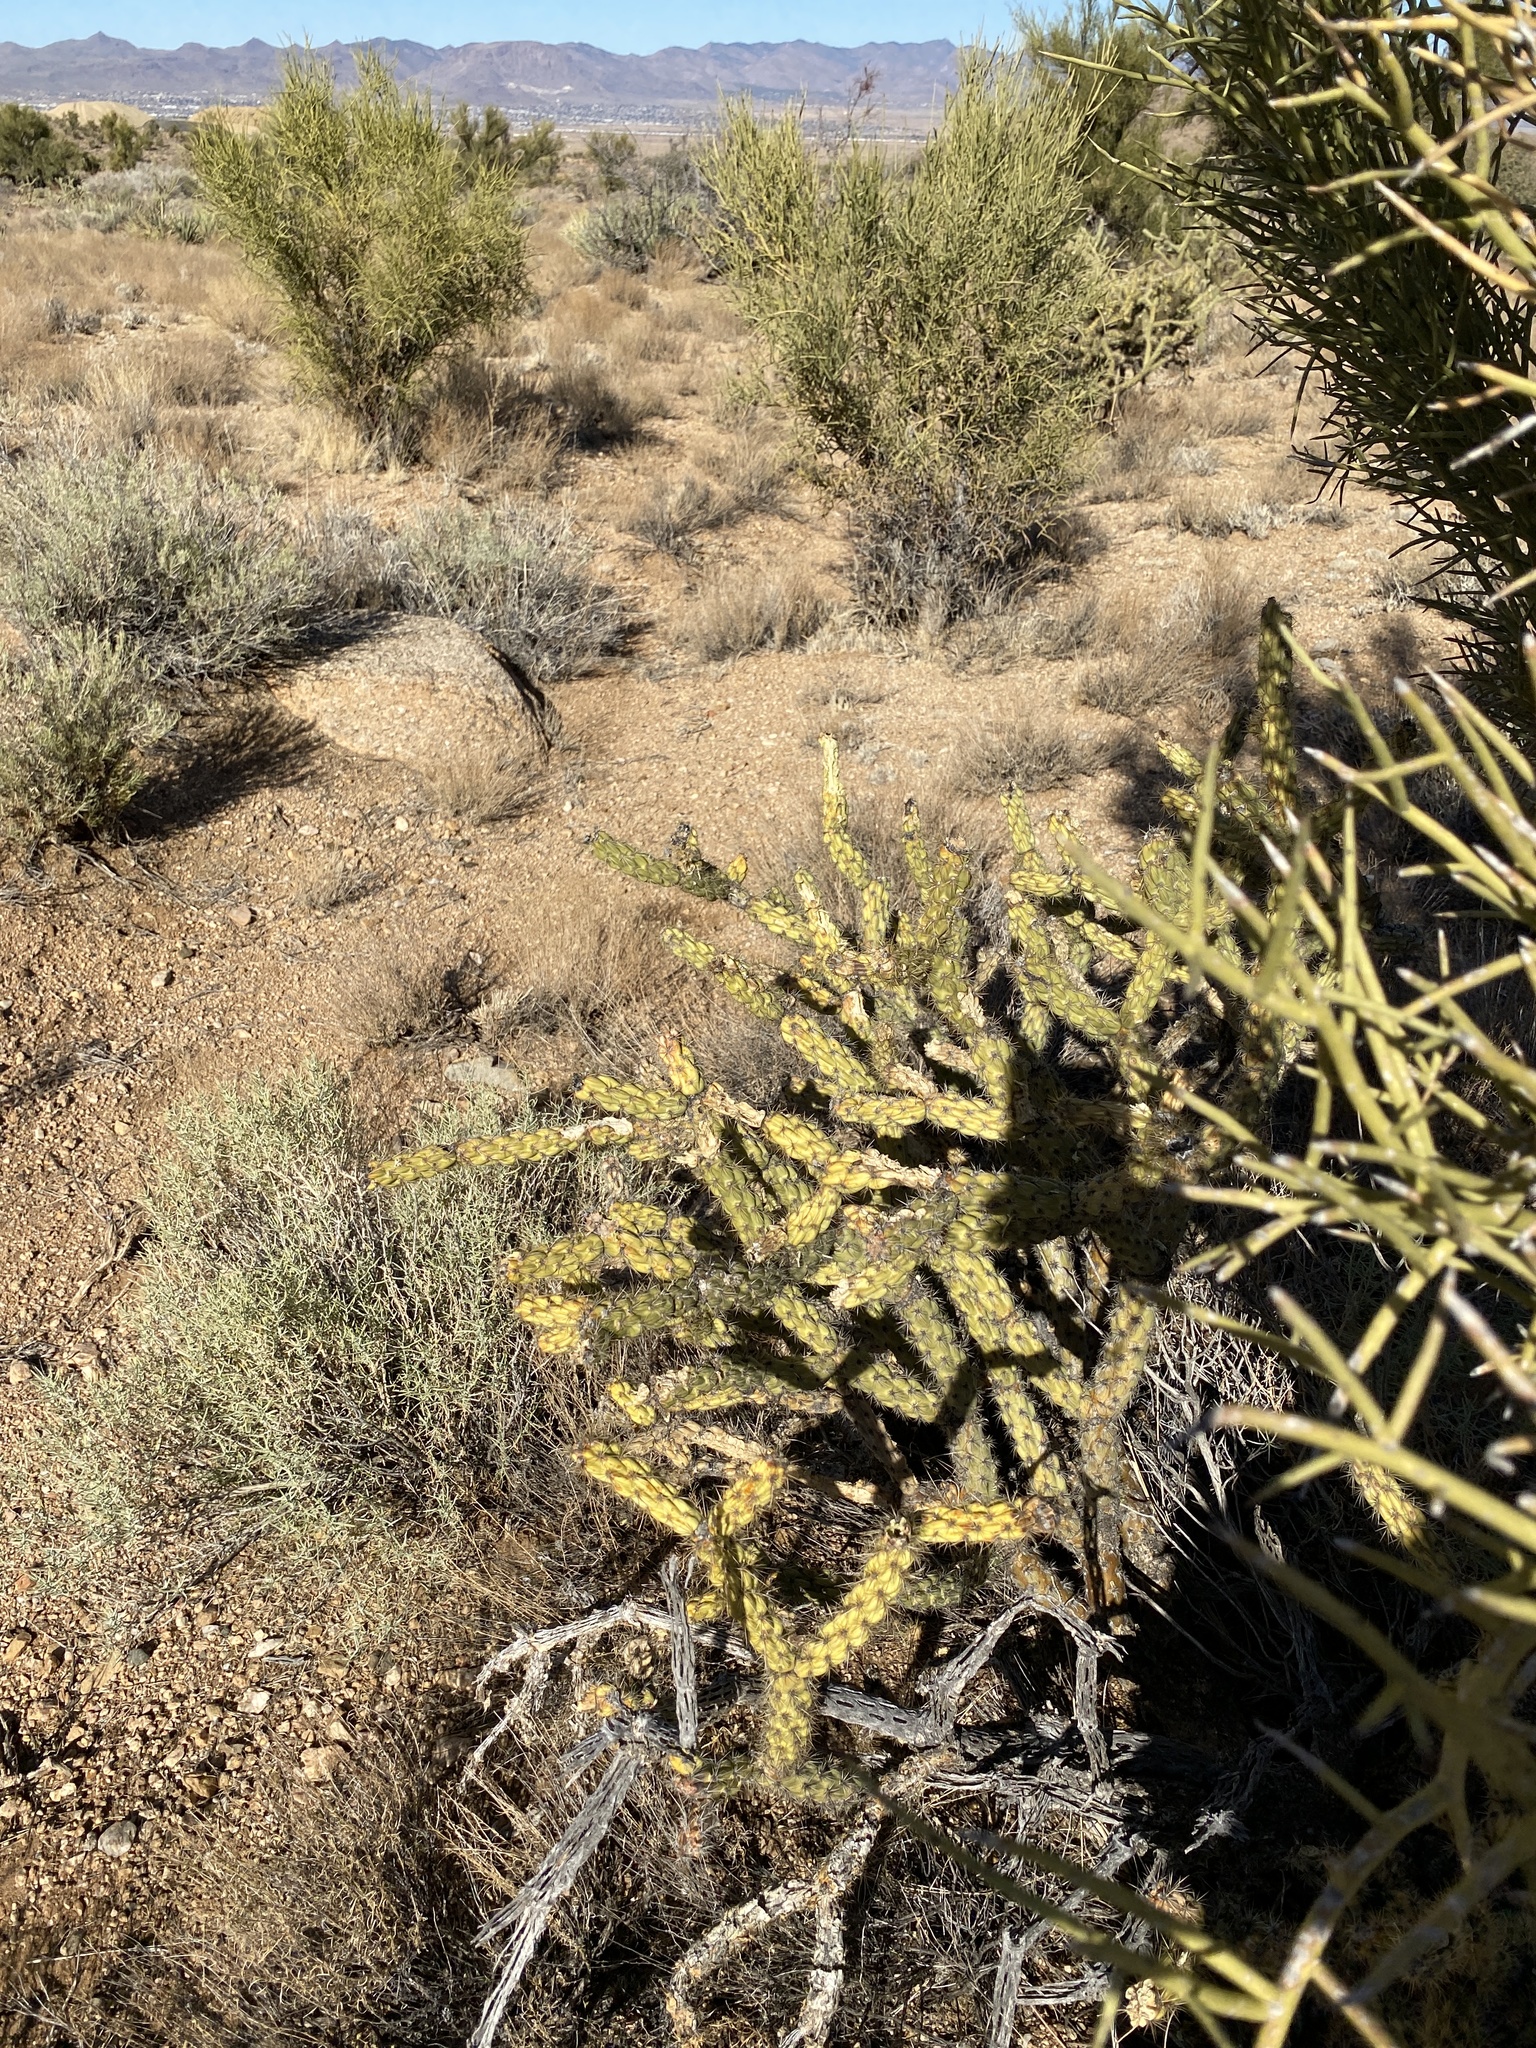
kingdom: Plantae
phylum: Tracheophyta
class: Magnoliopsida
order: Caryophyllales
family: Cactaceae
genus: Cylindropuntia
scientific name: Cylindropuntia acanthocarpa
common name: Buckhorn cholla
